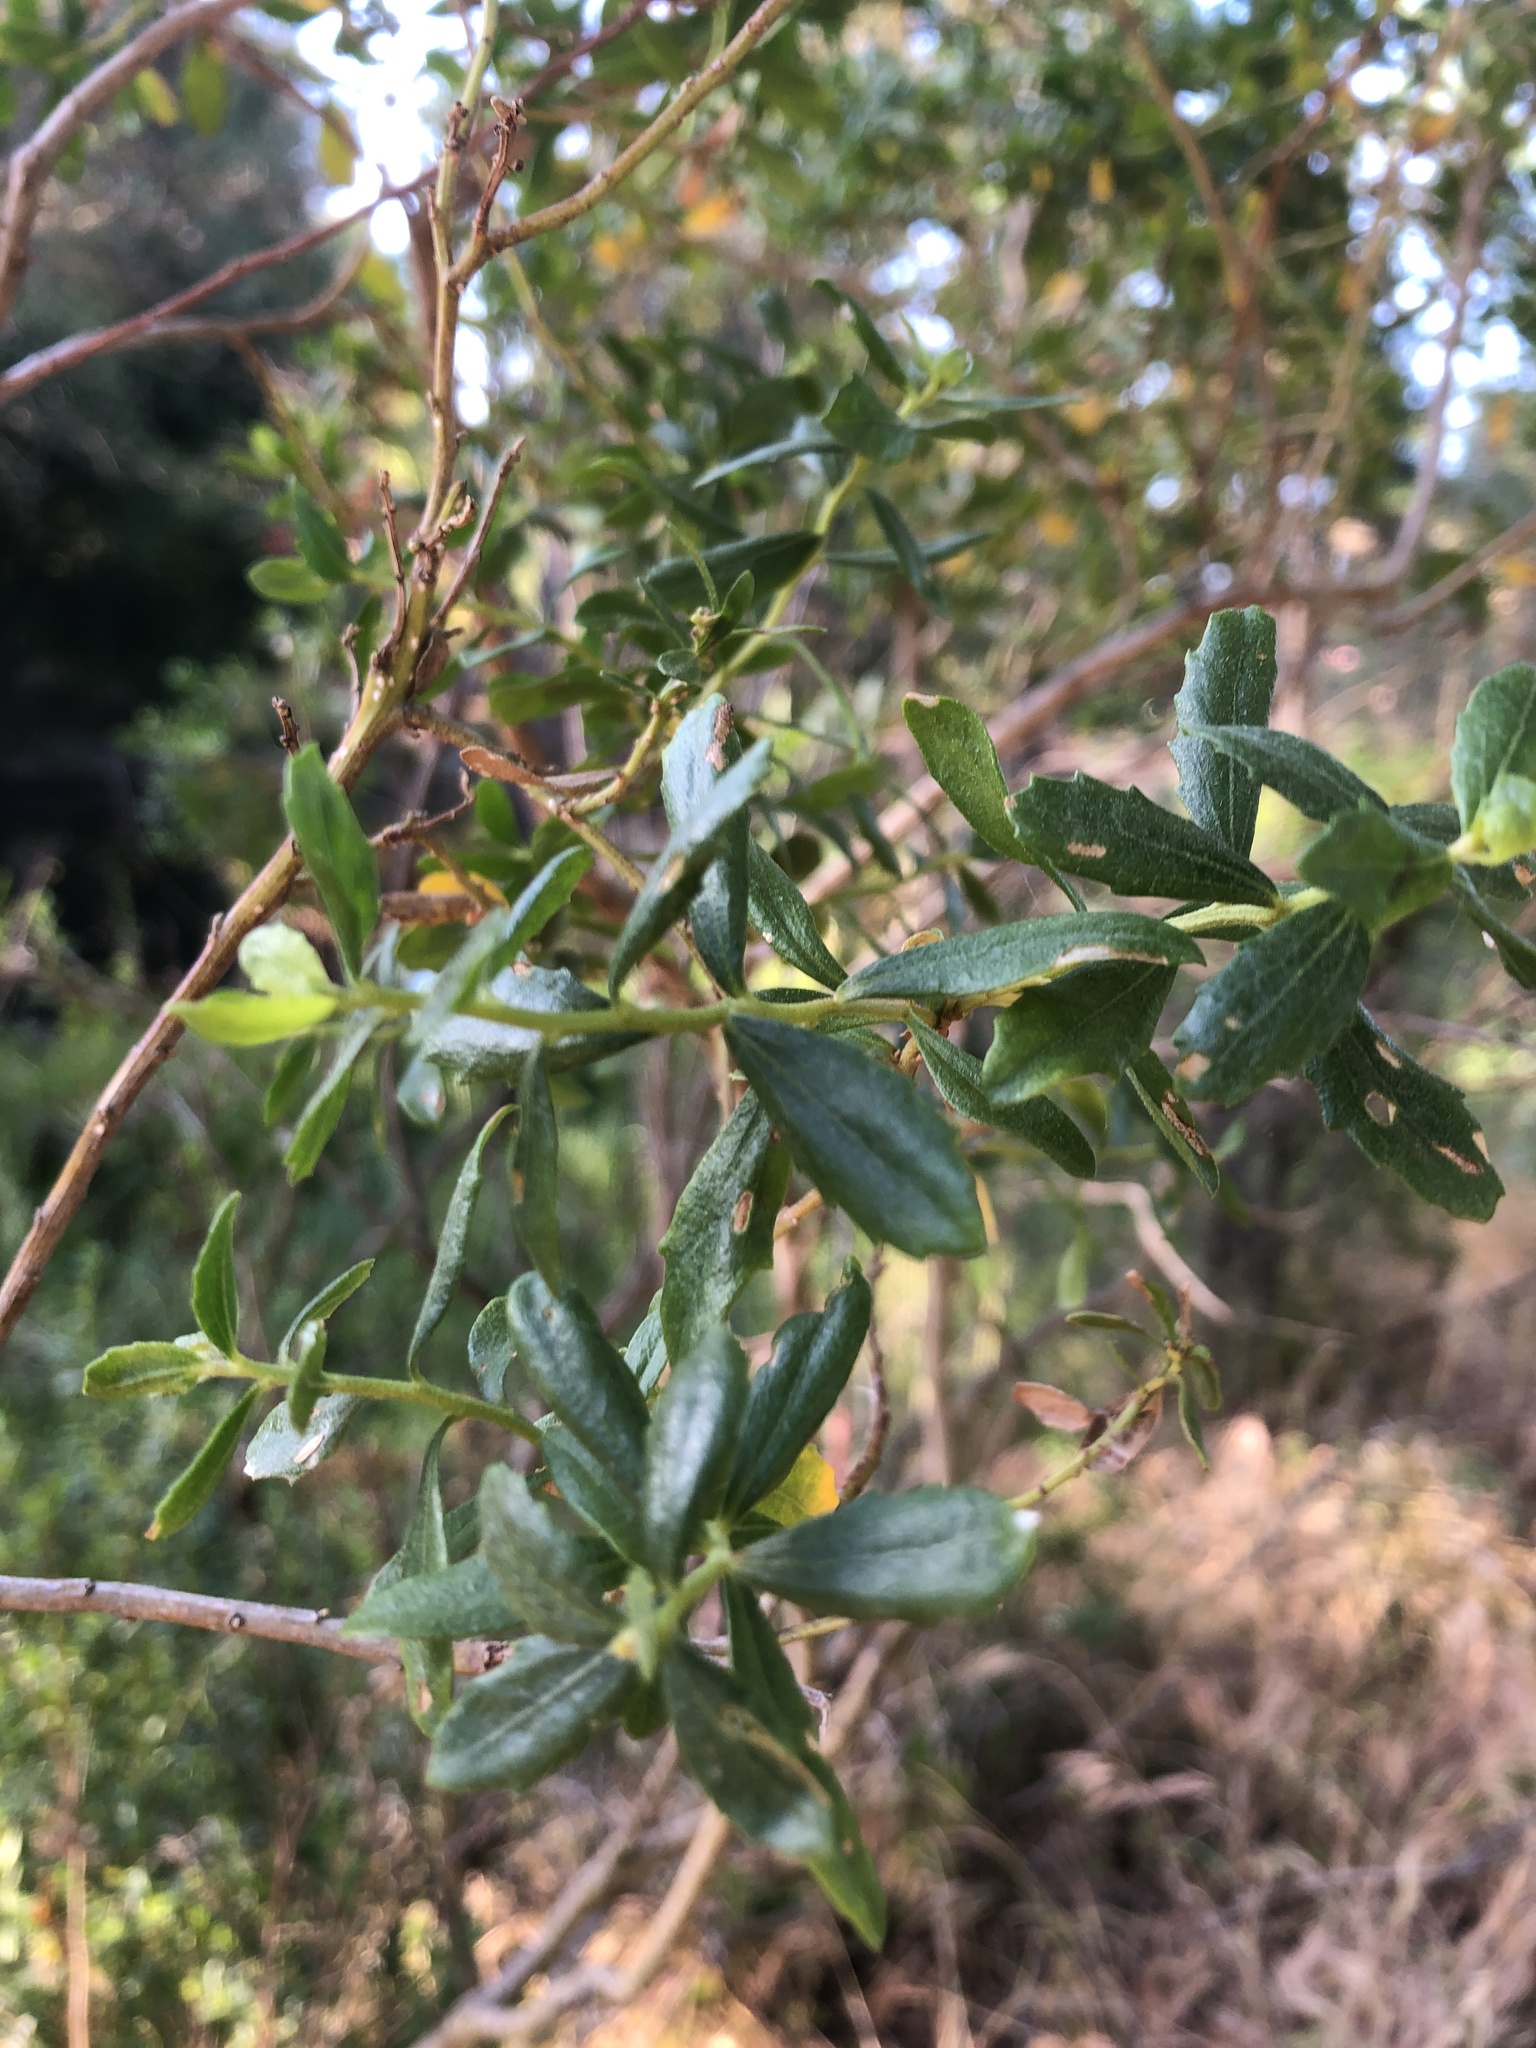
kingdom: Plantae
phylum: Tracheophyta
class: Magnoliopsida
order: Asterales
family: Asteraceae
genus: Baccharis
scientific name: Baccharis pilularis
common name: Coyotebrush
